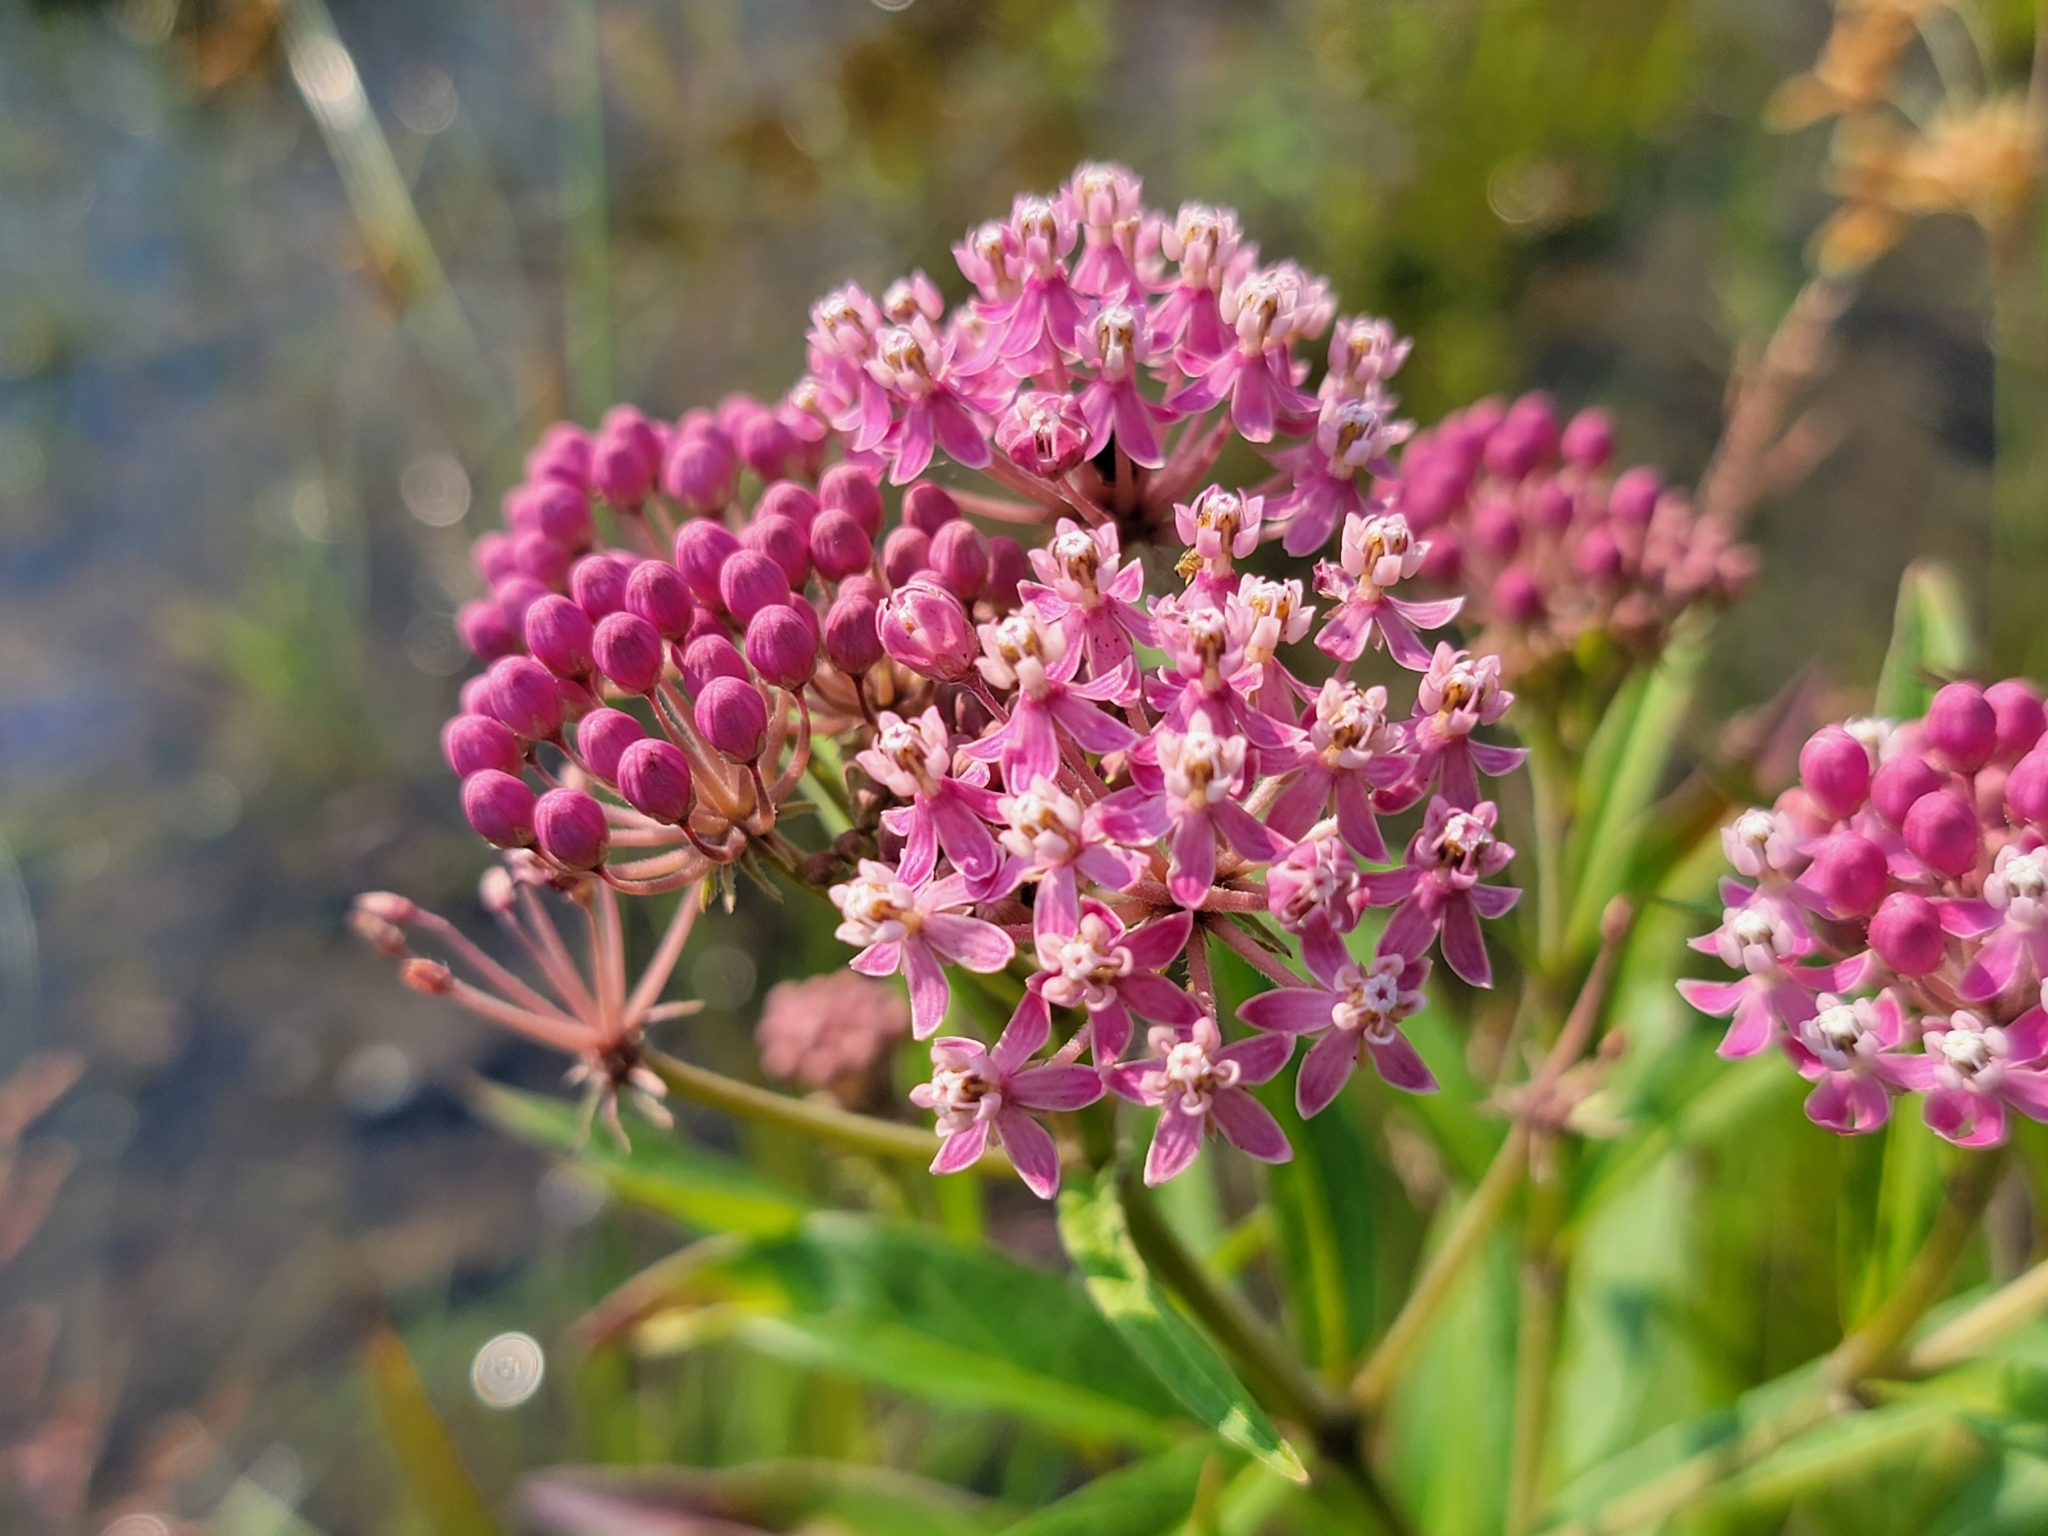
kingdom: Plantae
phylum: Tracheophyta
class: Magnoliopsida
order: Gentianales
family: Apocynaceae
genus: Asclepias
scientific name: Asclepias incarnata
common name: Swamp milkweed
